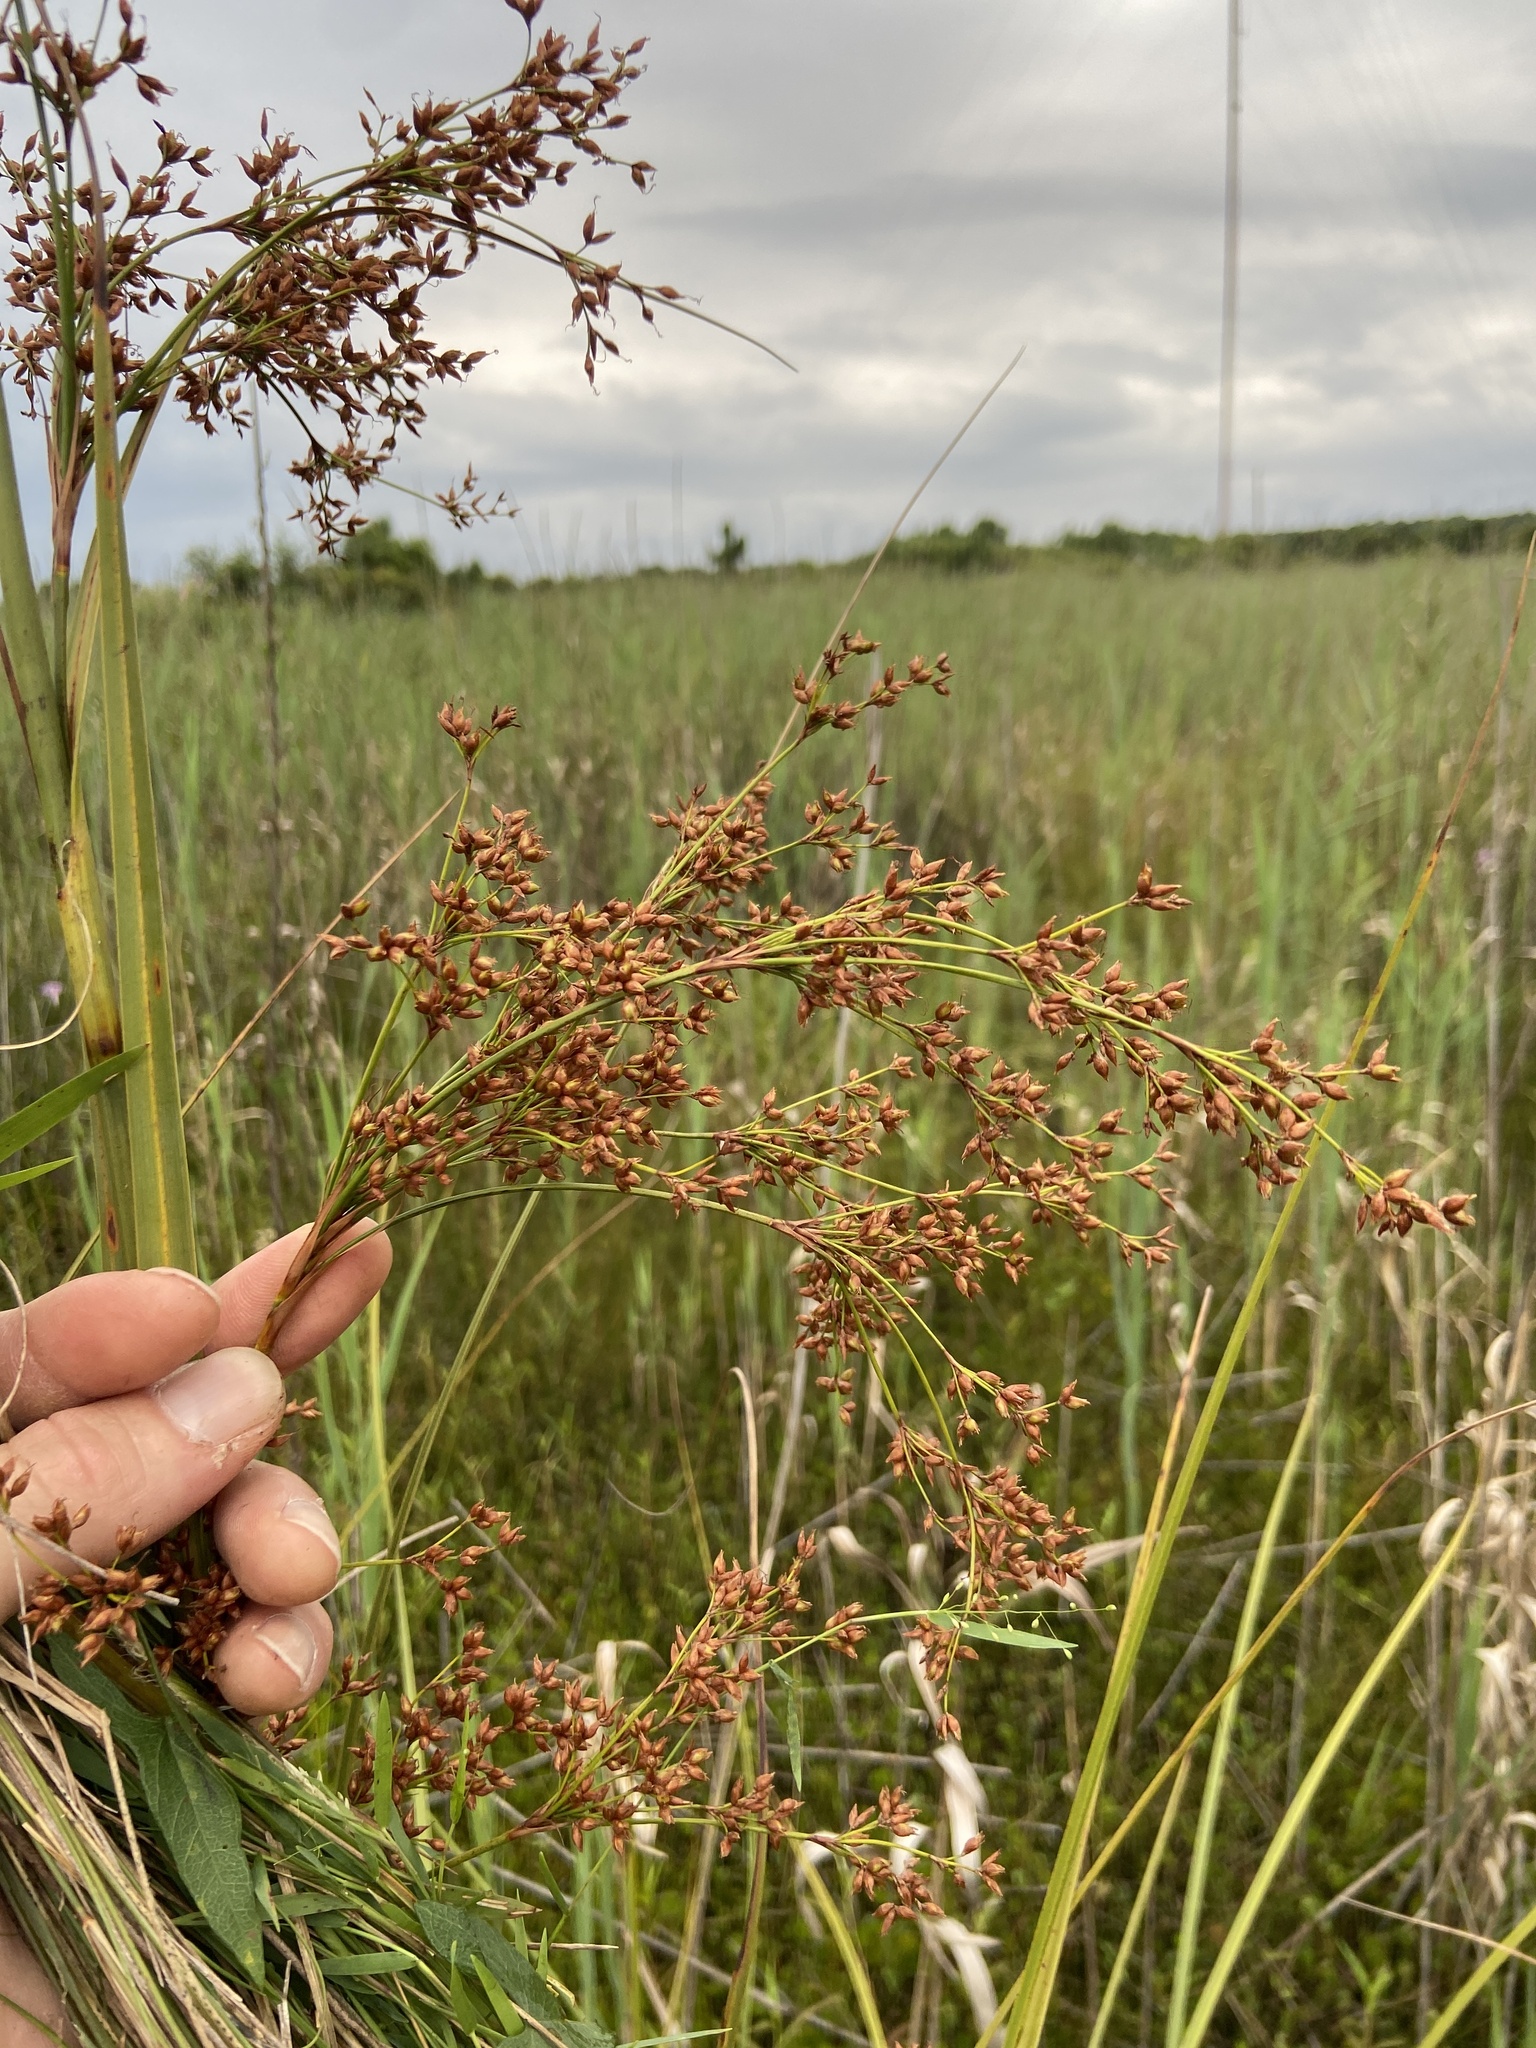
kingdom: Plantae
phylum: Tracheophyta
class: Liliopsida
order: Poales
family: Cyperaceae
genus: Cladium
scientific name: Cladium mariscus
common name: Great fen-sedge
